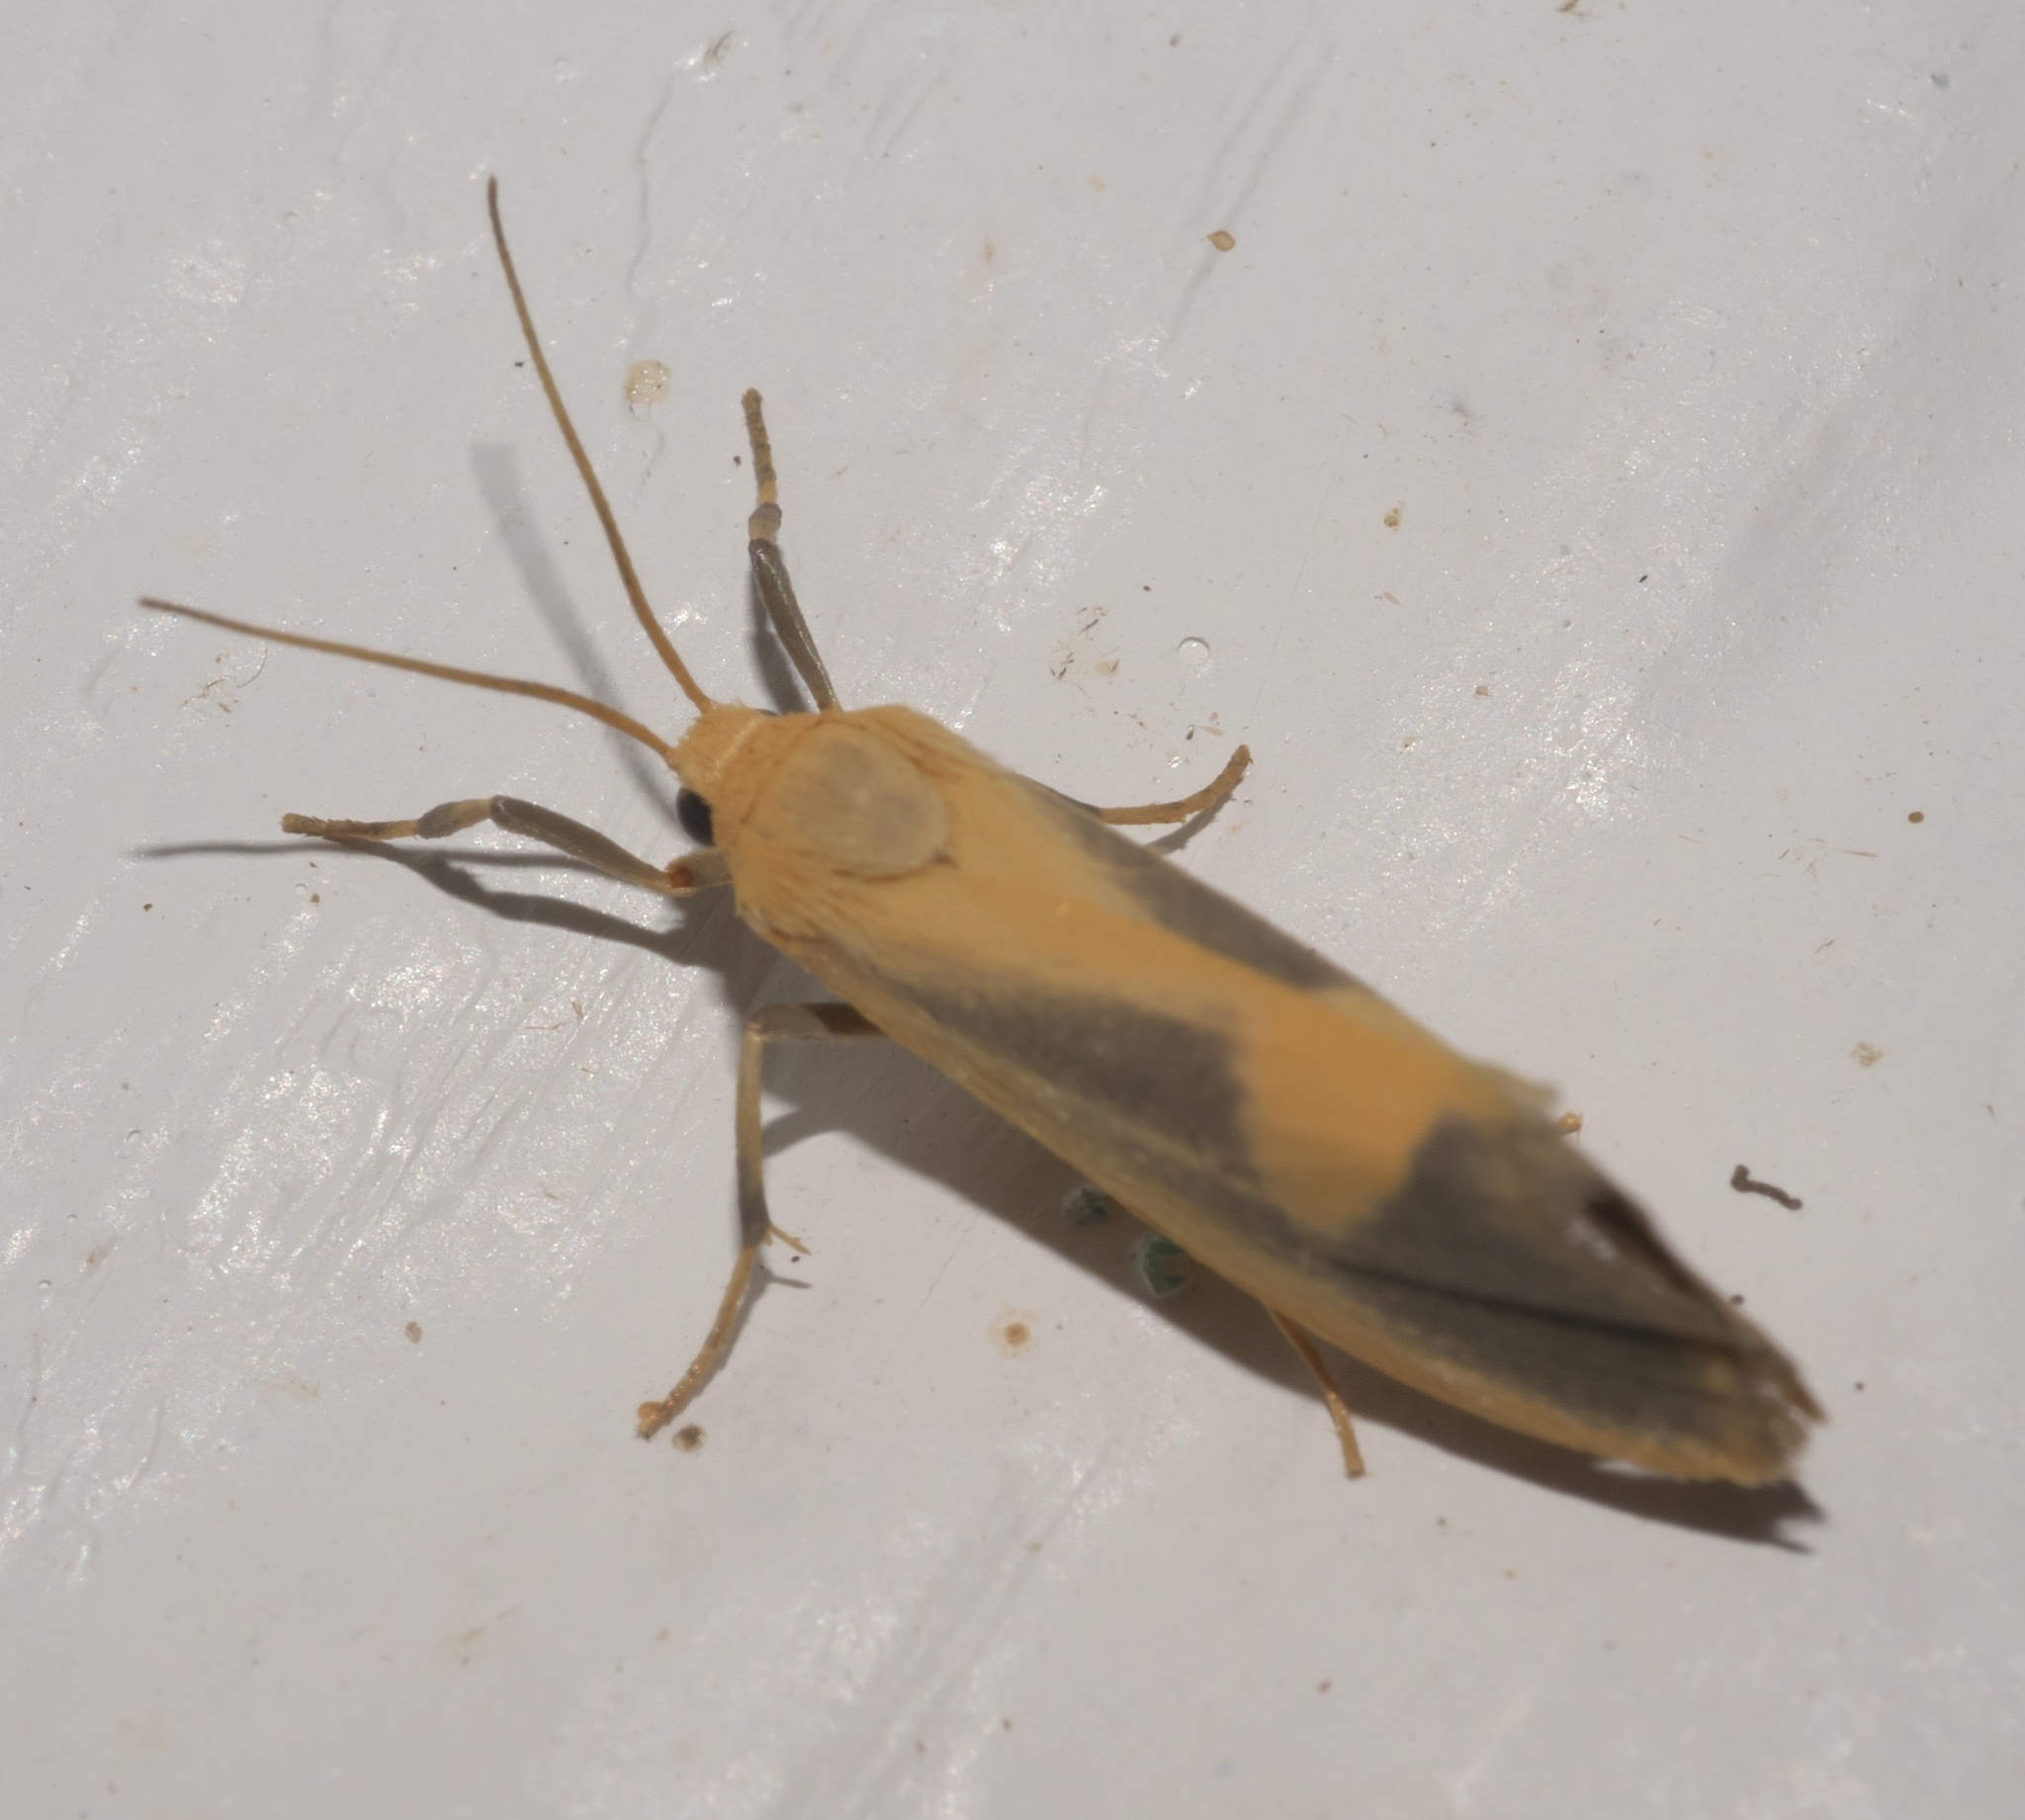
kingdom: Animalia
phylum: Arthropoda
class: Insecta
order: Lepidoptera
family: Erebidae
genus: Cisthene
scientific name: Cisthene plumbea
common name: Lead colored lichen moth
